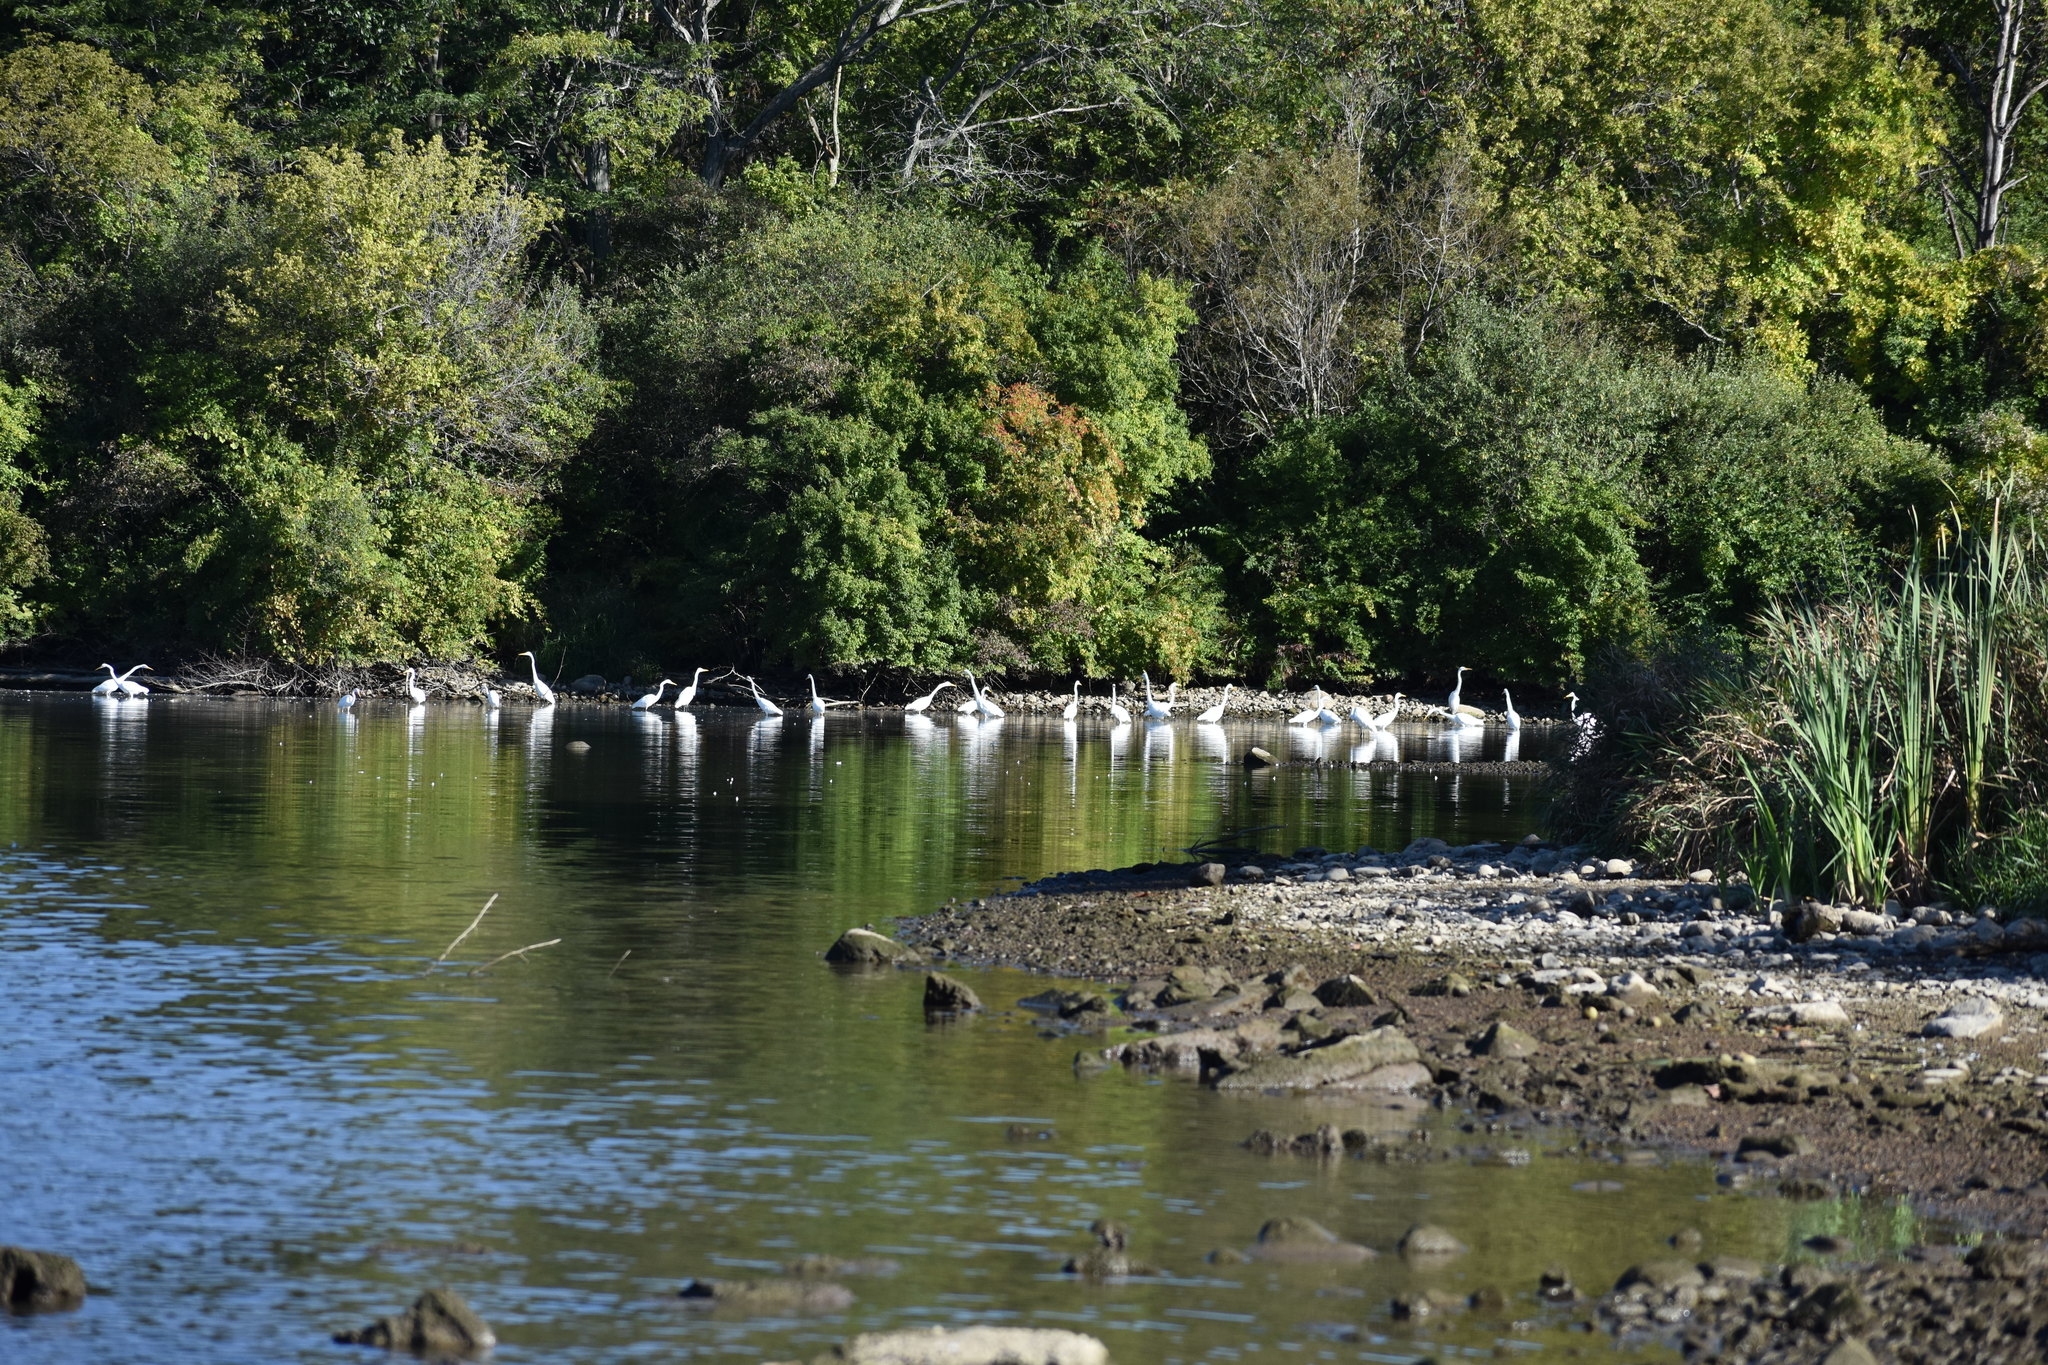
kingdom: Animalia
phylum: Chordata
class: Aves
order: Pelecaniformes
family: Ardeidae
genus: Ardea
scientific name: Ardea alba
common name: Great egret
